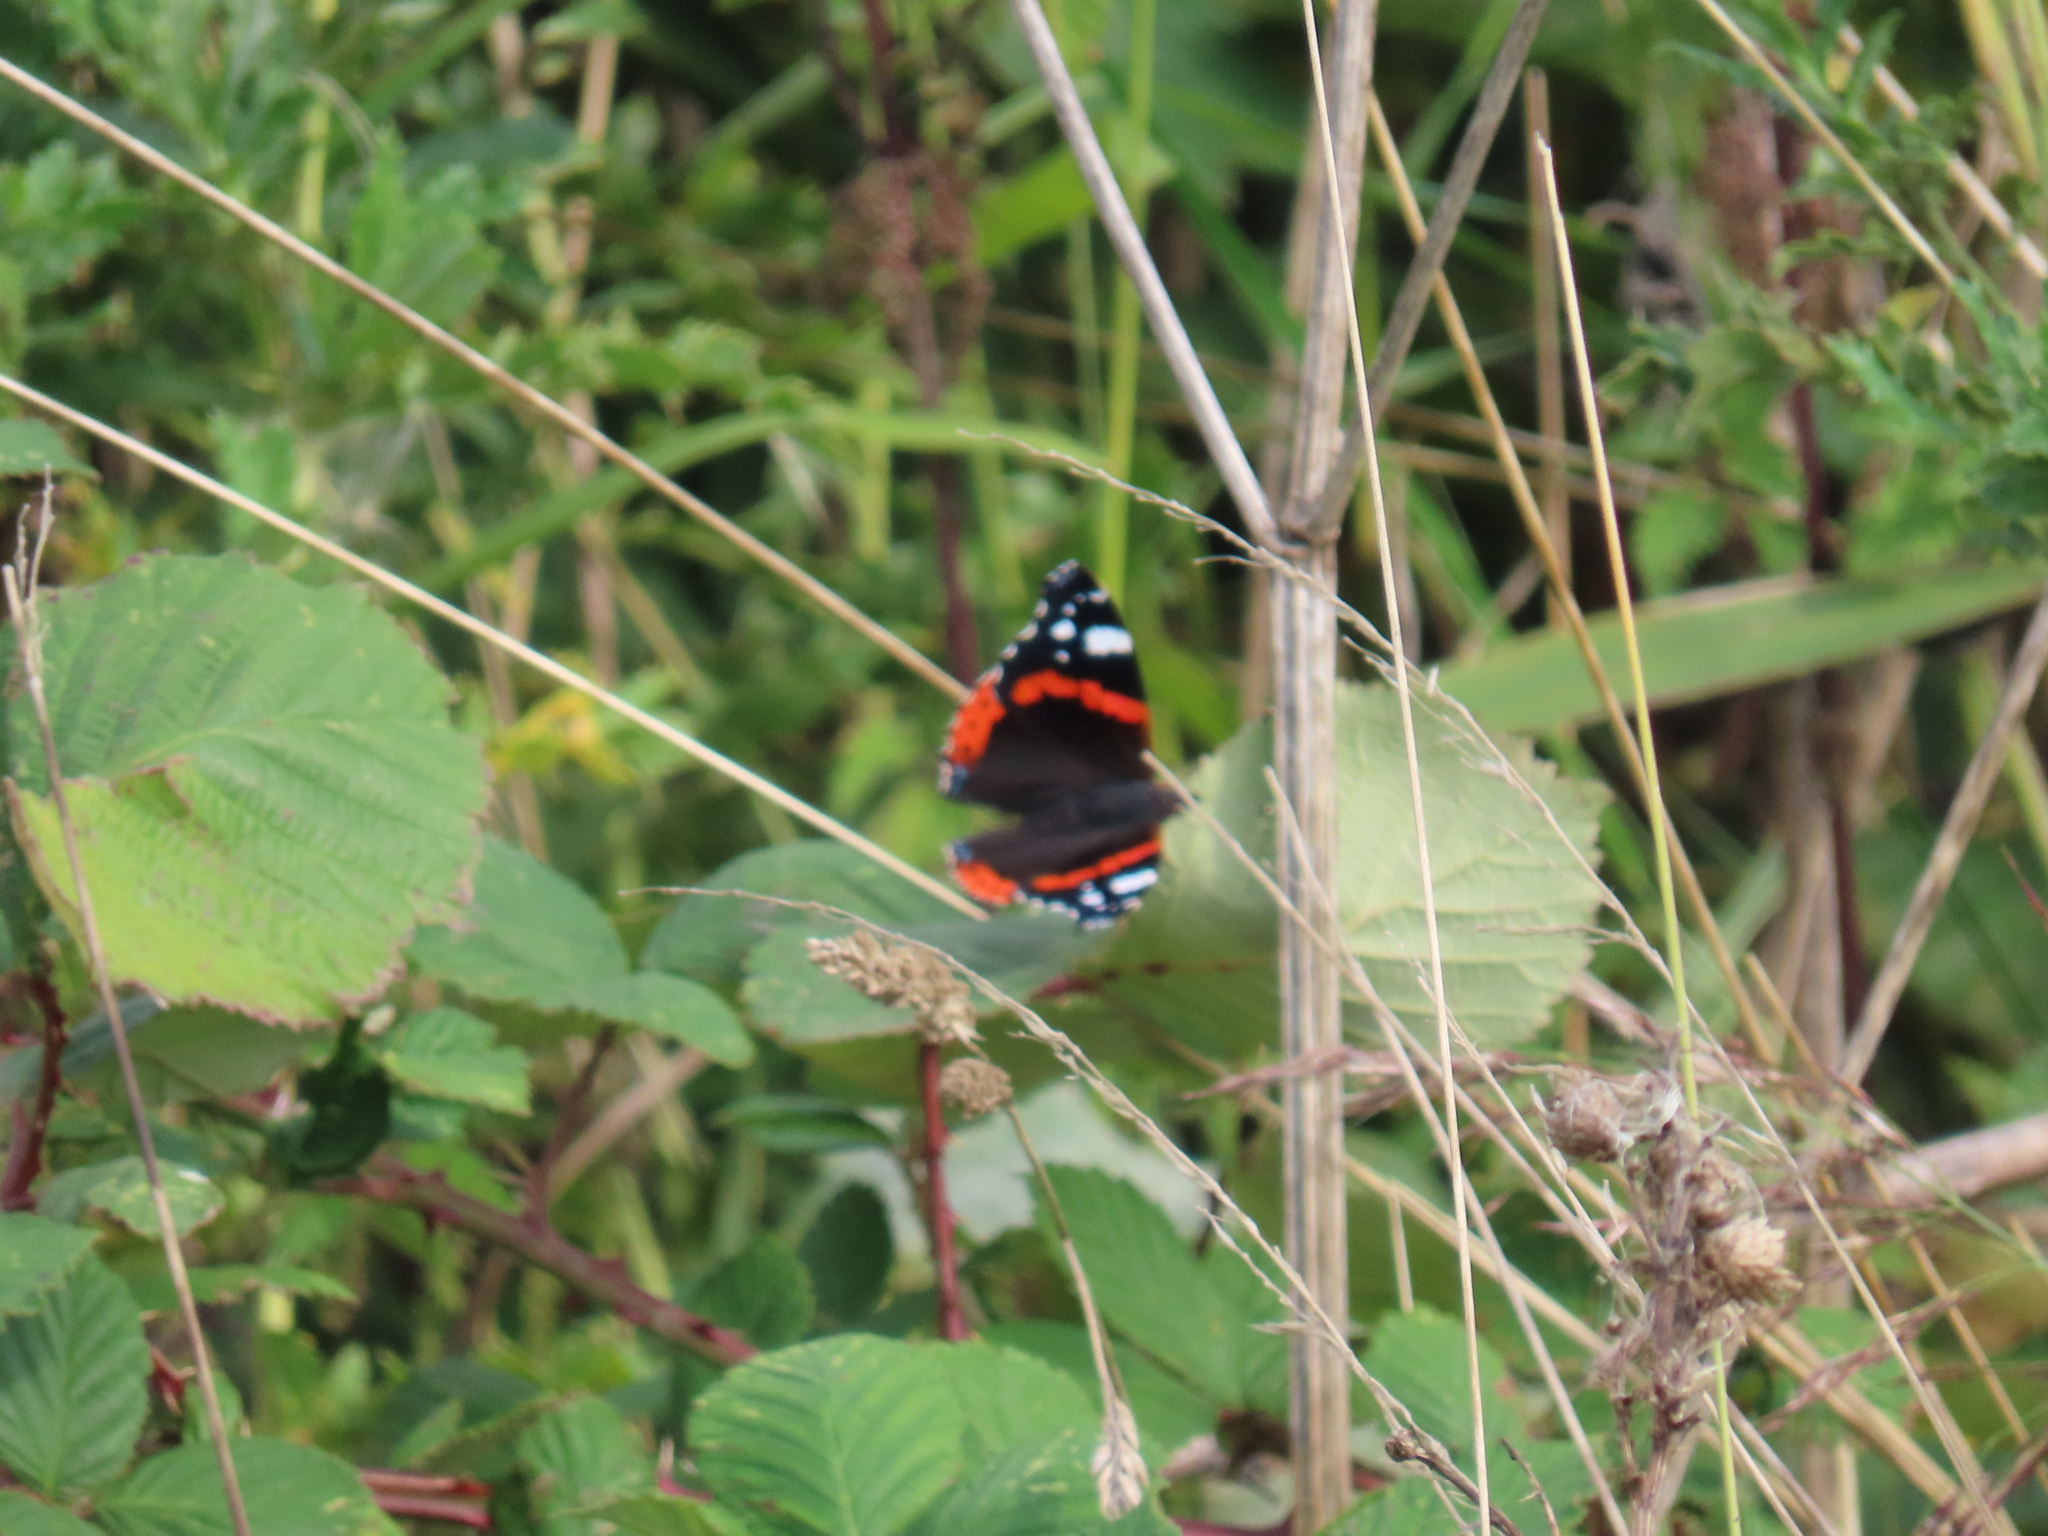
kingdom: Animalia
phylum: Arthropoda
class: Insecta
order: Lepidoptera
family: Nymphalidae
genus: Vanessa
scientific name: Vanessa atalanta
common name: Red admiral
